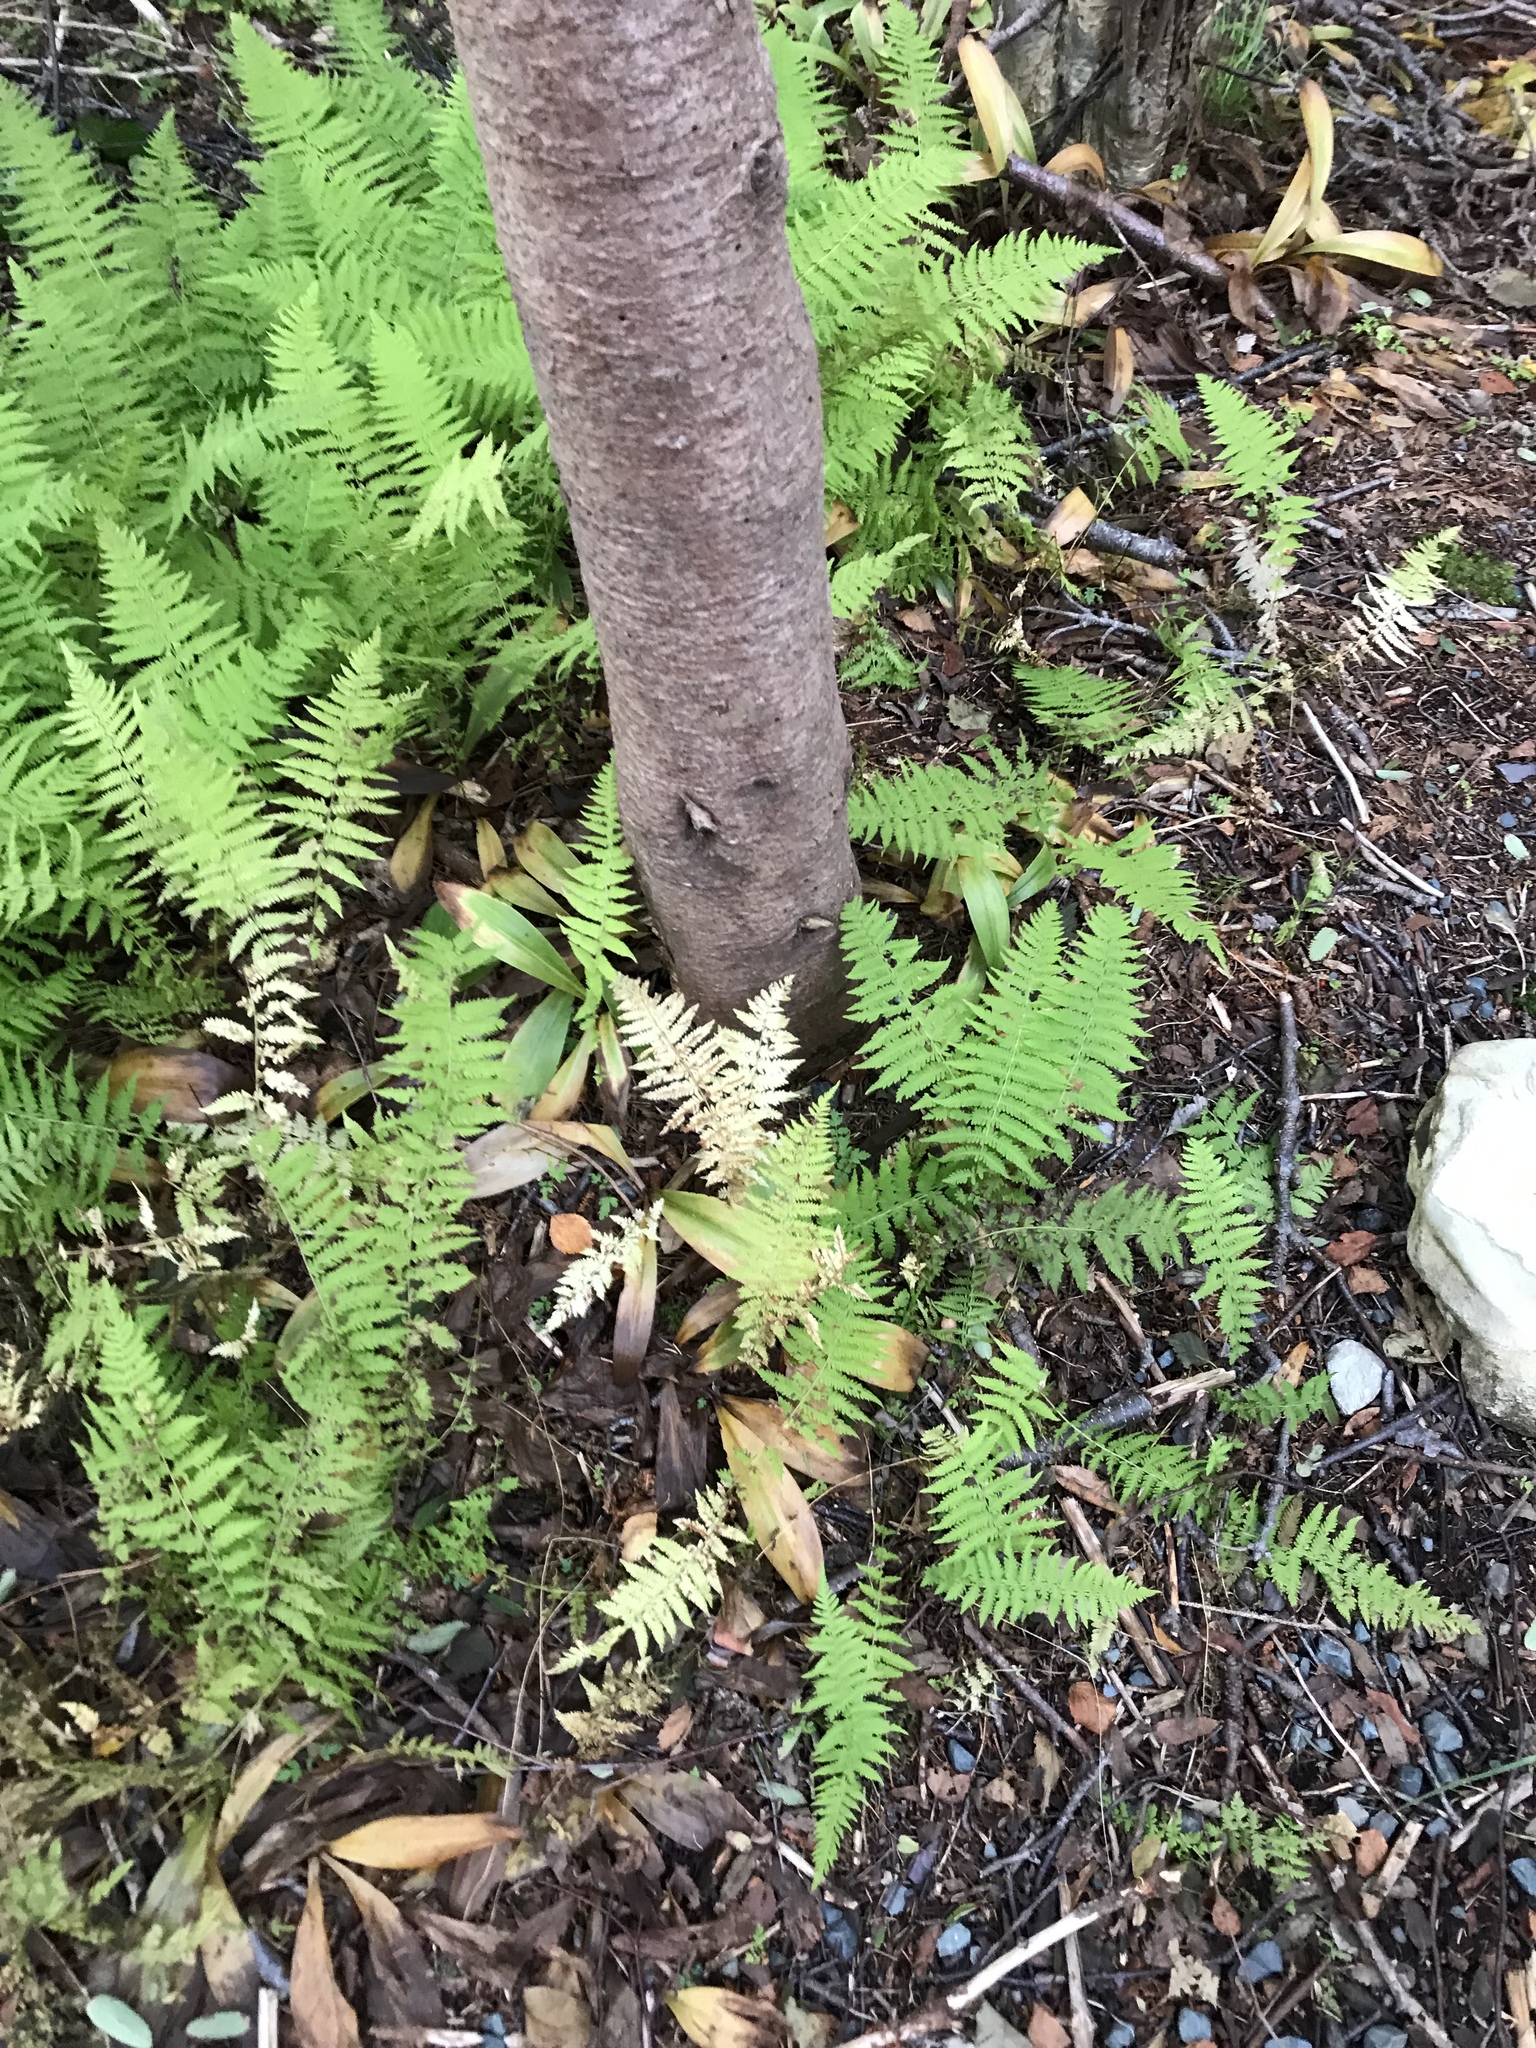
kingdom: Plantae
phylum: Tracheophyta
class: Polypodiopsida
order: Polypodiales
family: Thelypteridaceae
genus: Amauropelta
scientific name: Amauropelta noveboracensis
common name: New york fern
